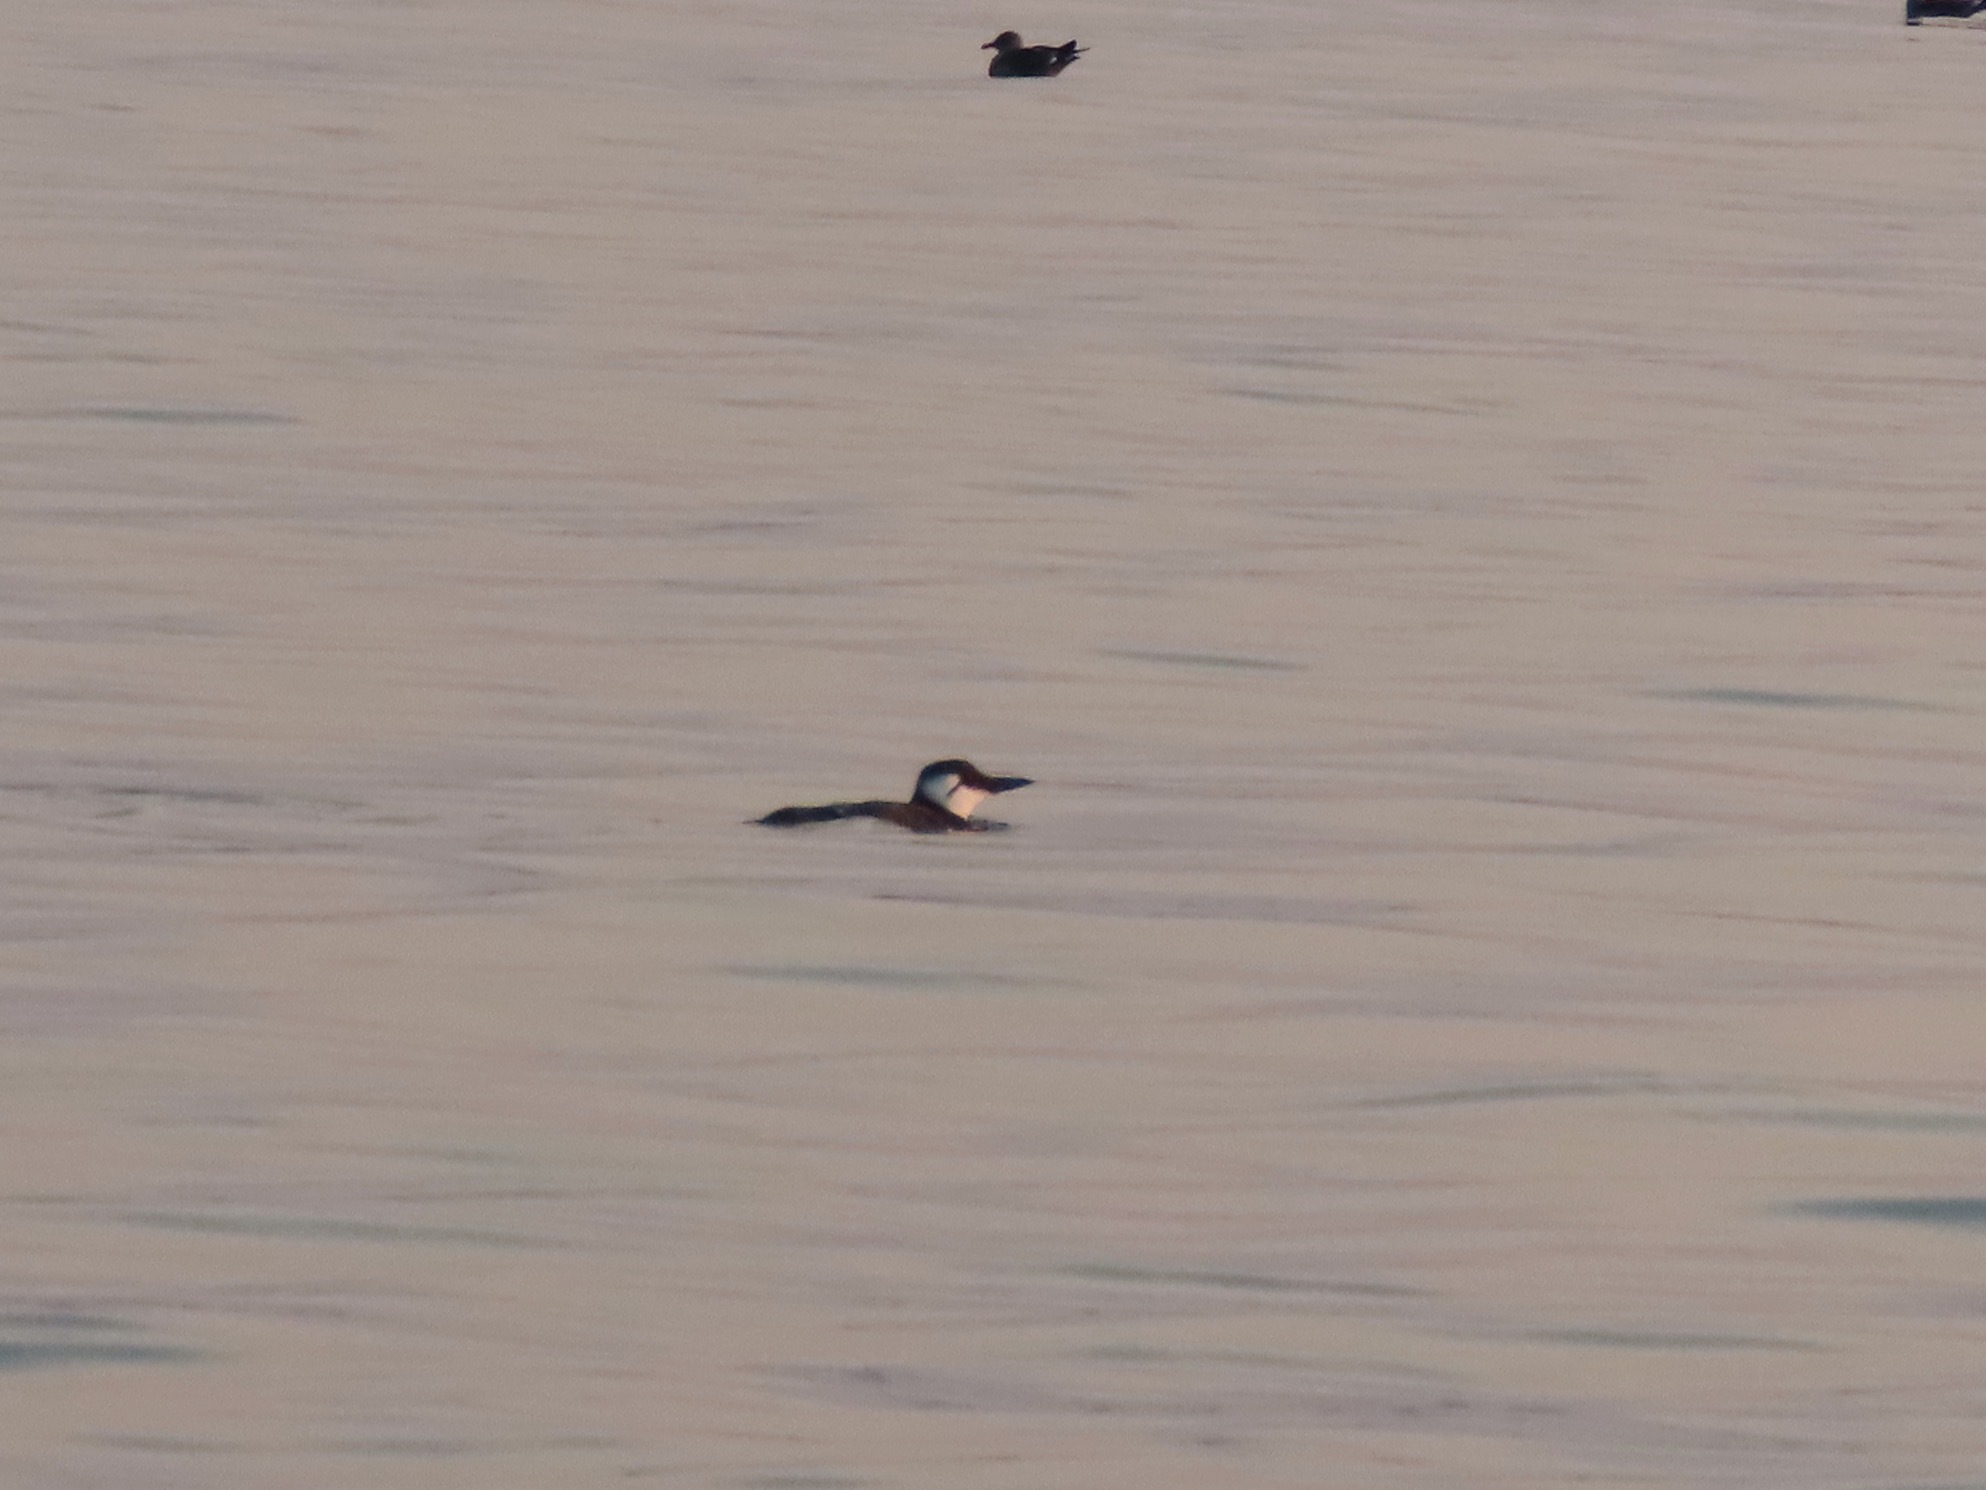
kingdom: Animalia
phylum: Chordata
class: Aves
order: Charadriiformes
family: Alcidae
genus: Uria
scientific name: Uria aalge
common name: Common murre
